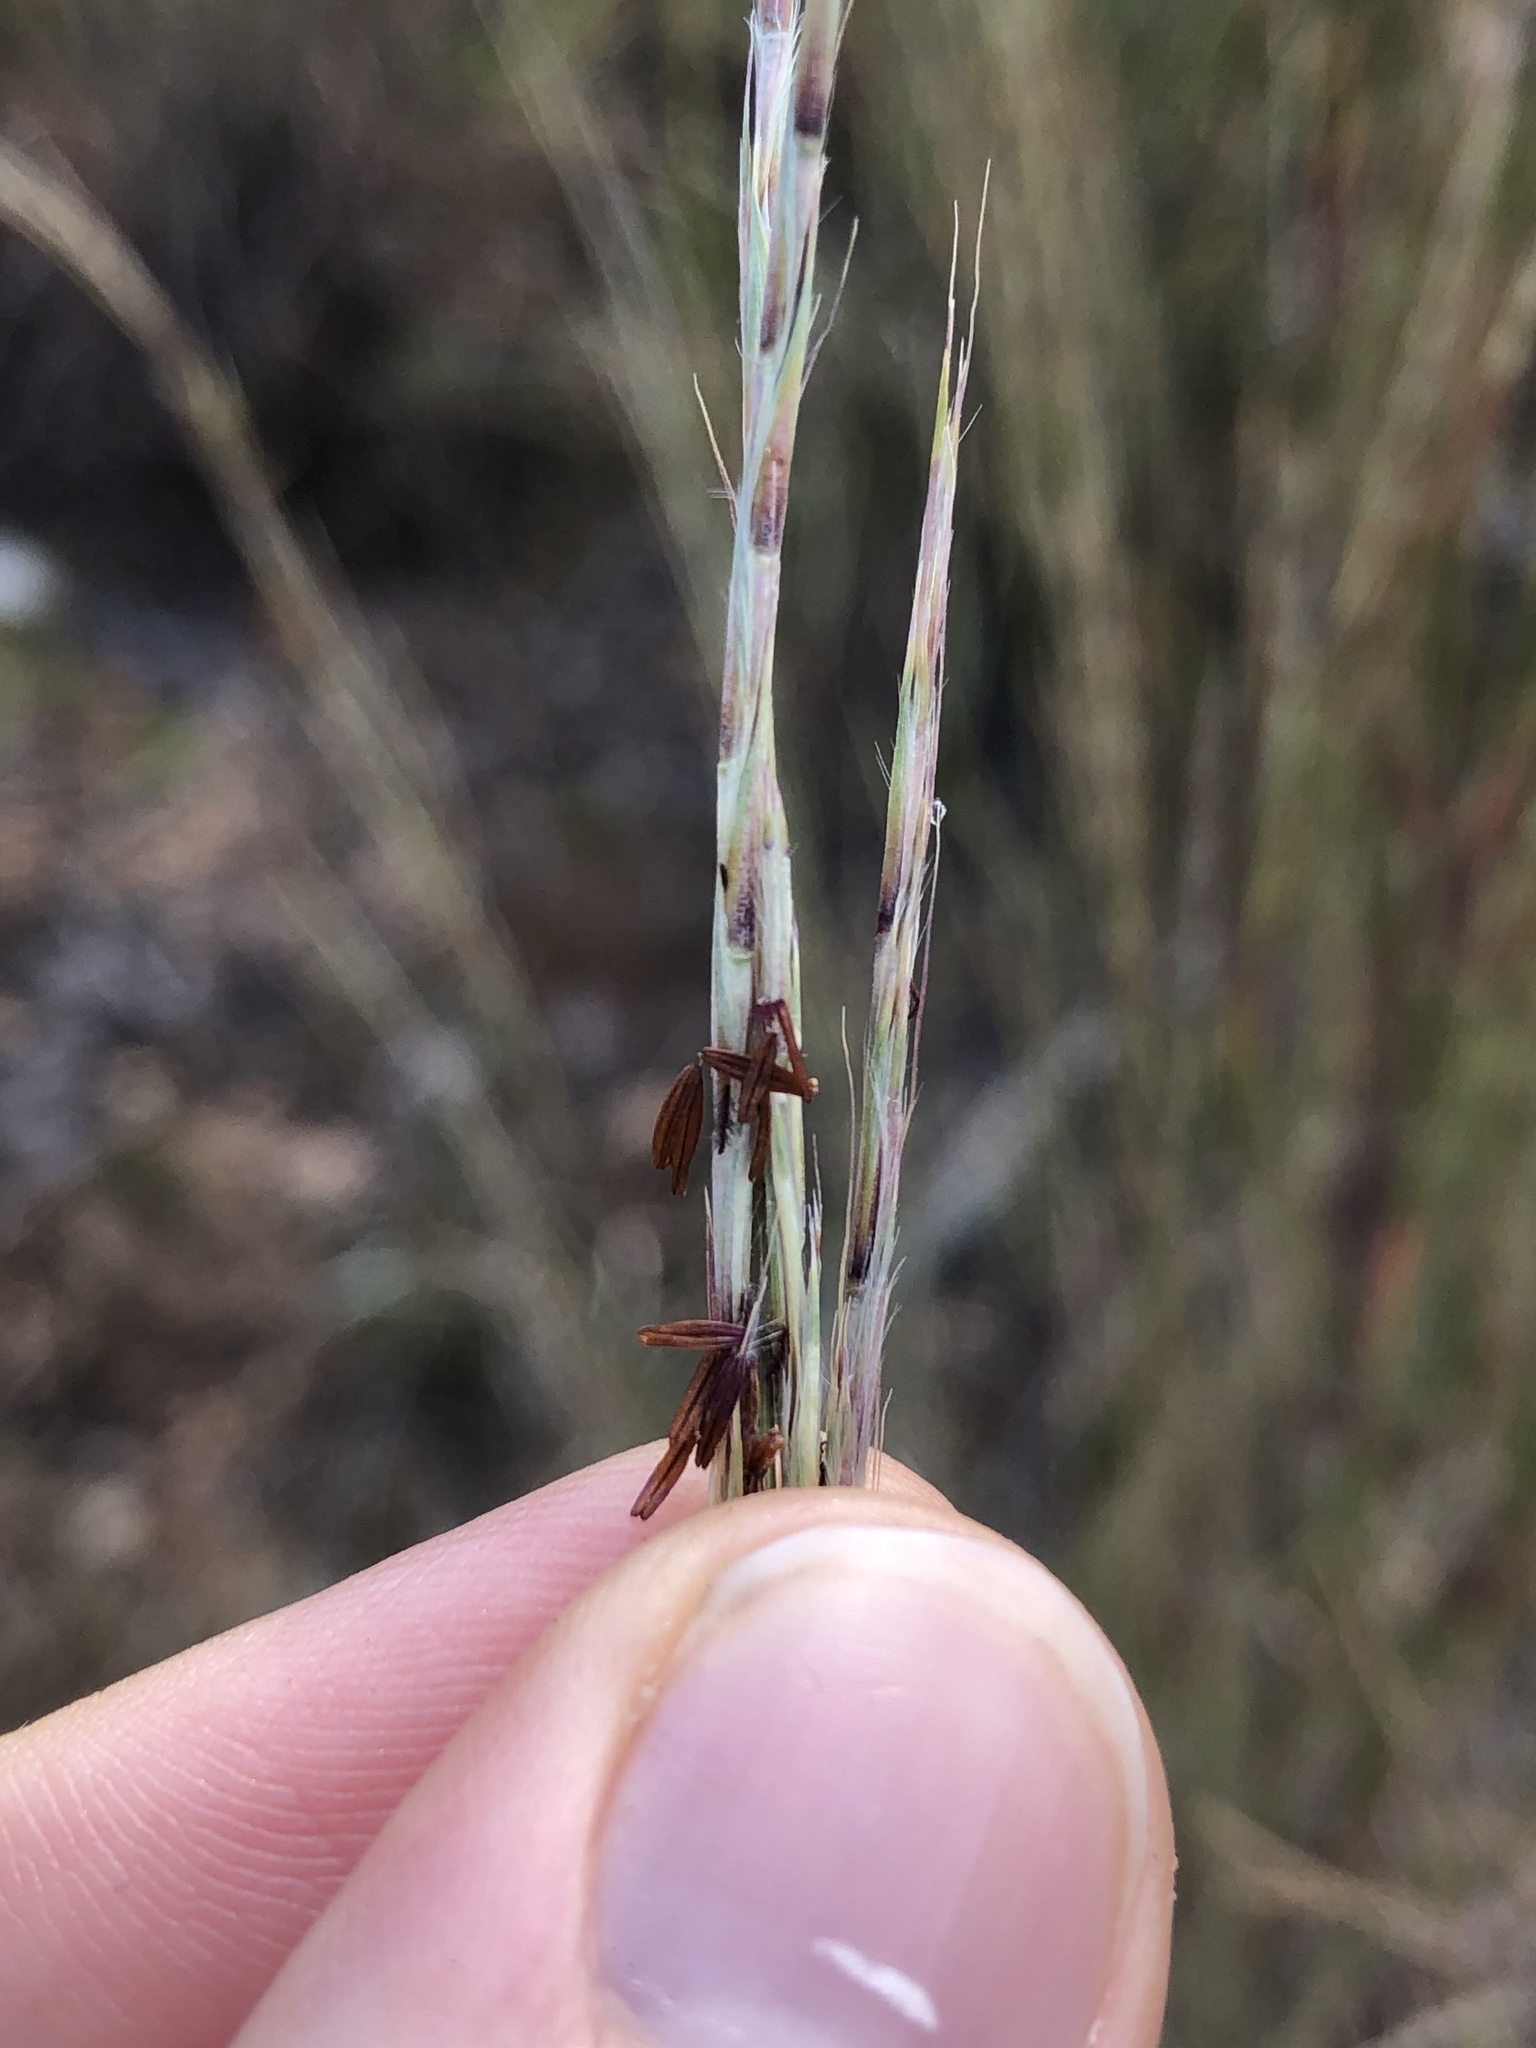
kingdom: Plantae
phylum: Tracheophyta
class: Liliopsida
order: Poales
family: Poaceae
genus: Schizachyrium
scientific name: Schizachyrium scoparium
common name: Little bluestem
